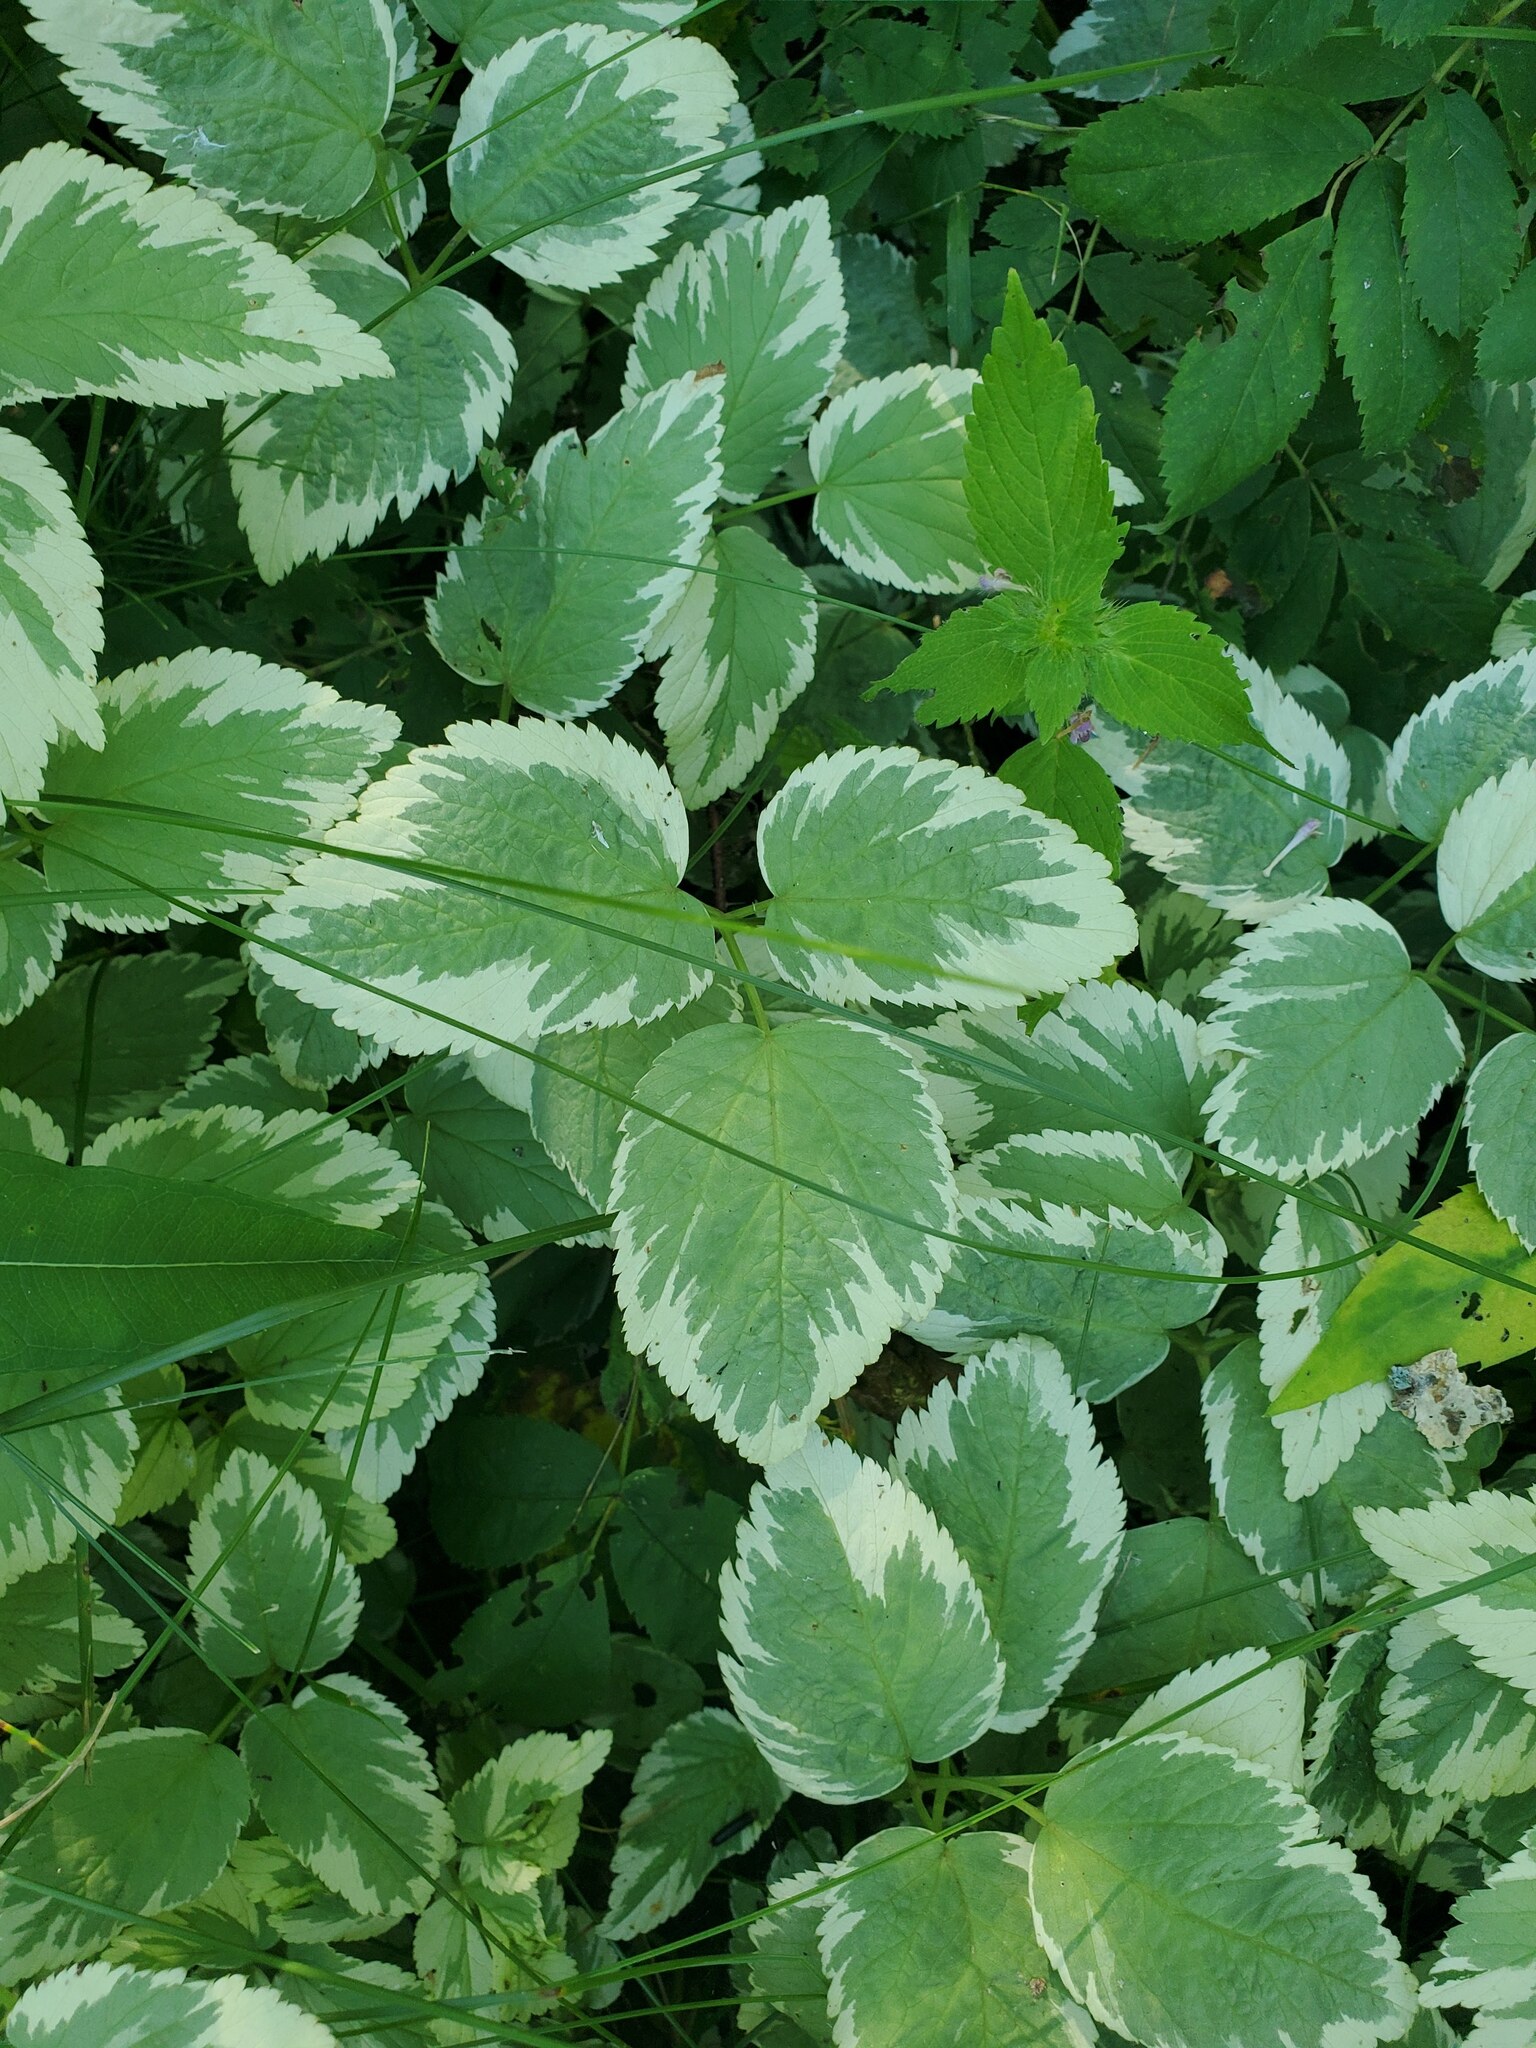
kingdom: Plantae
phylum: Tracheophyta
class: Magnoliopsida
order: Apiales
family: Apiaceae
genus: Aegopodium
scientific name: Aegopodium podagraria
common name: Ground-elder
